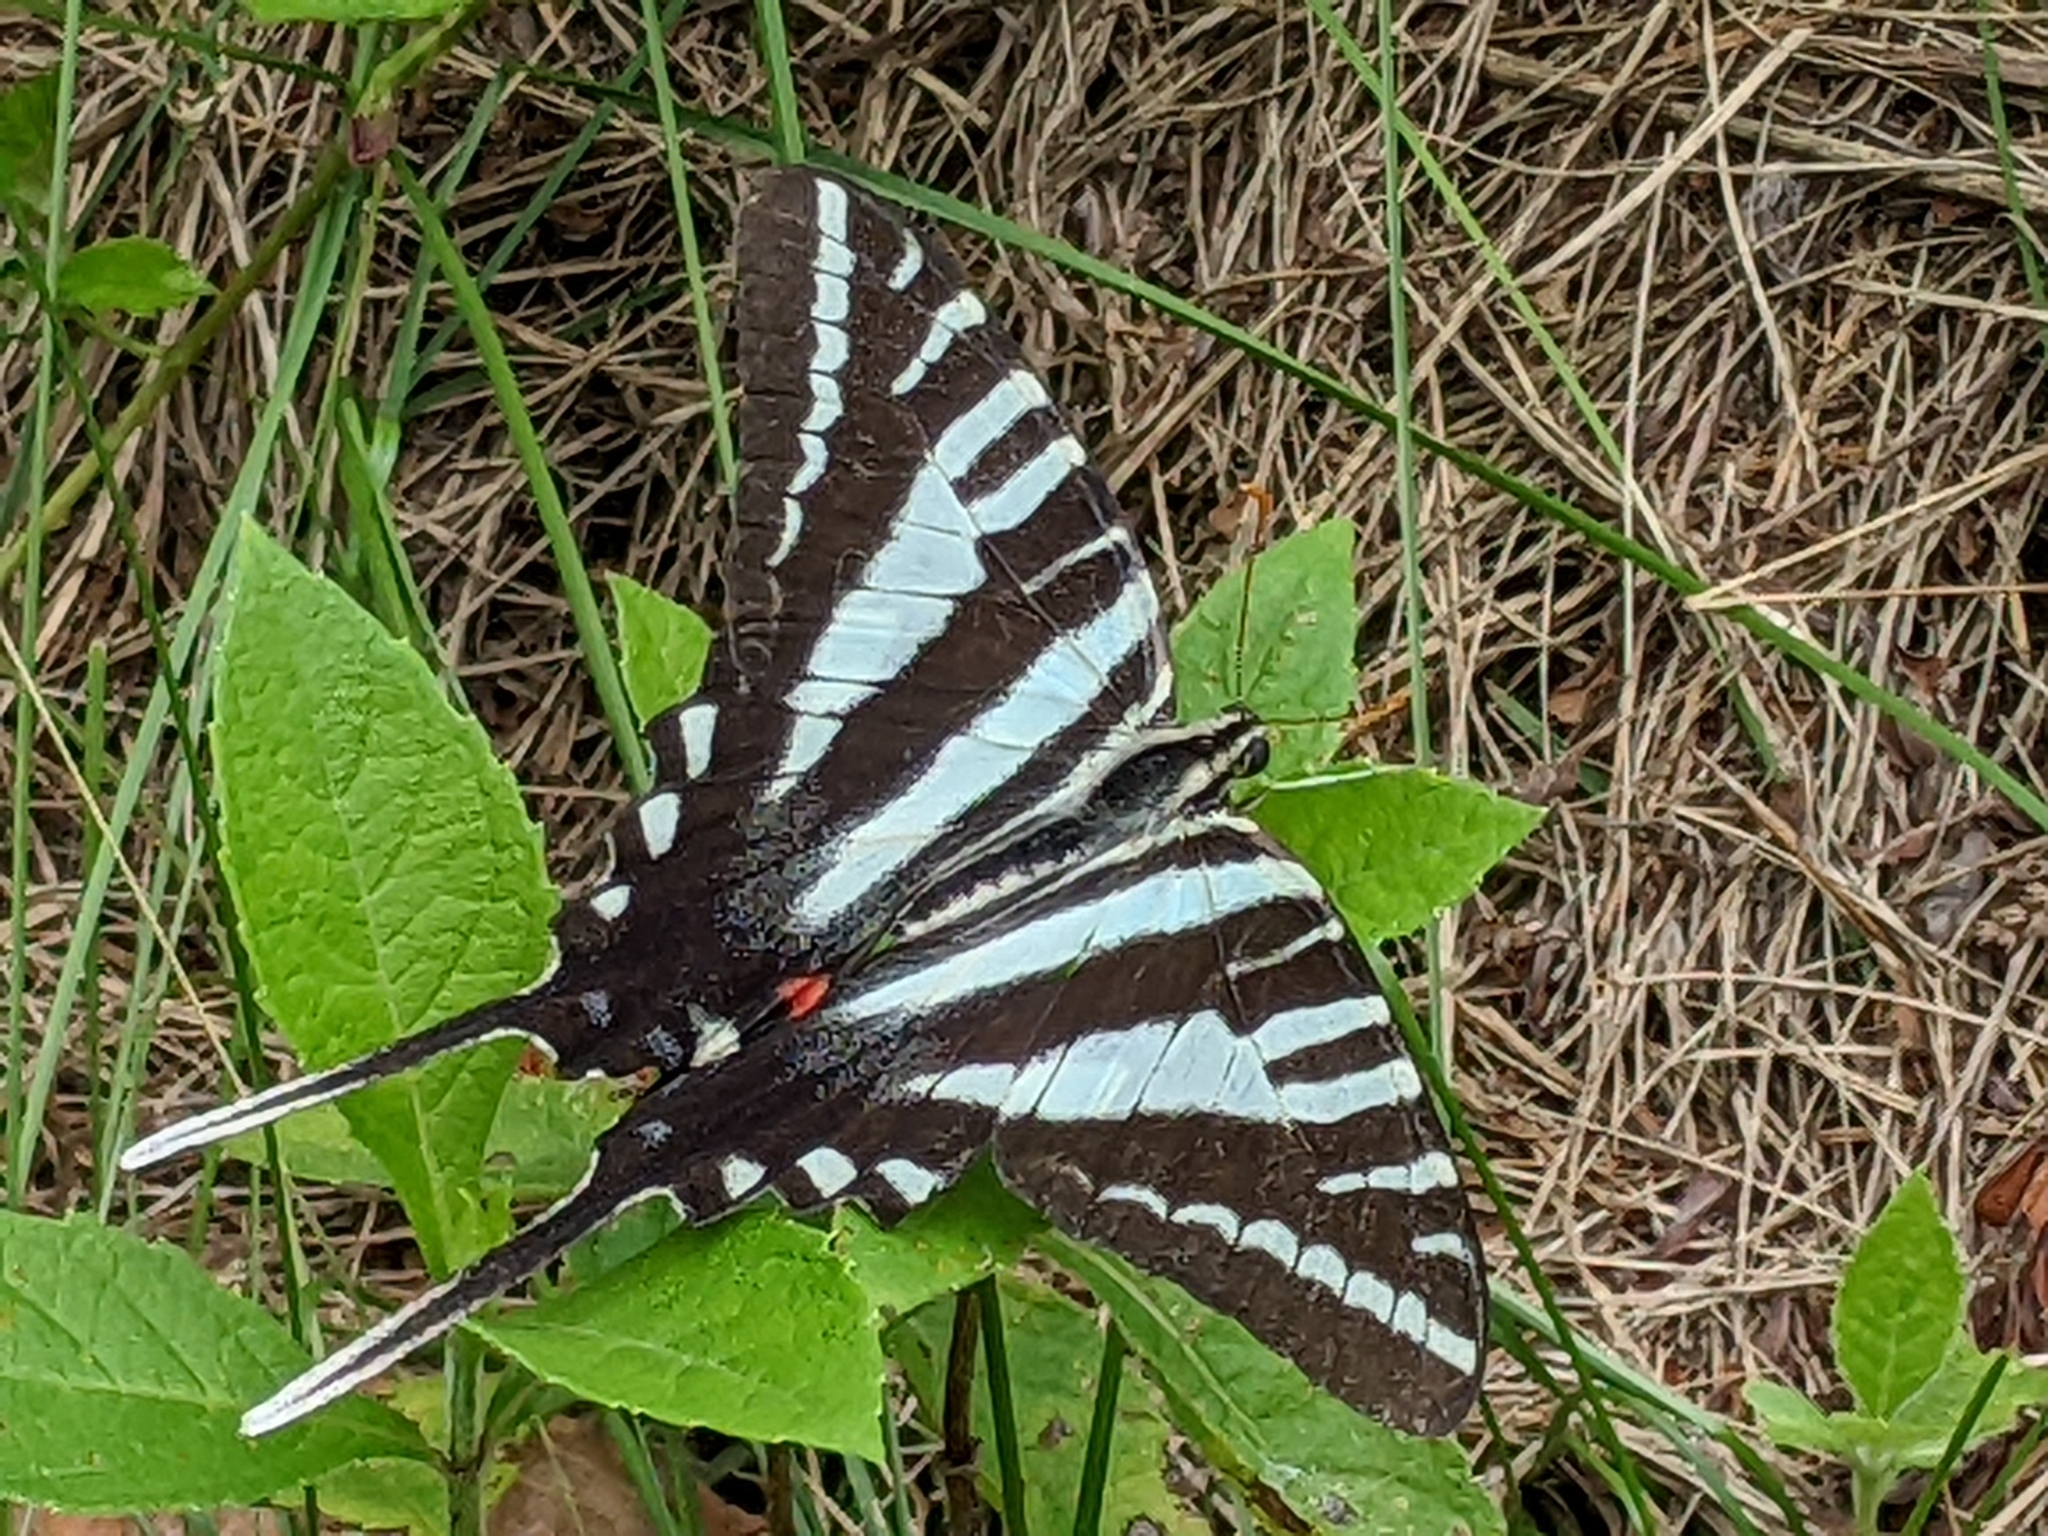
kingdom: Animalia
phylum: Arthropoda
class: Insecta
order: Lepidoptera
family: Papilionidae
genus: Protographium
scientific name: Protographium marcellus
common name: Zebra swallowtail
